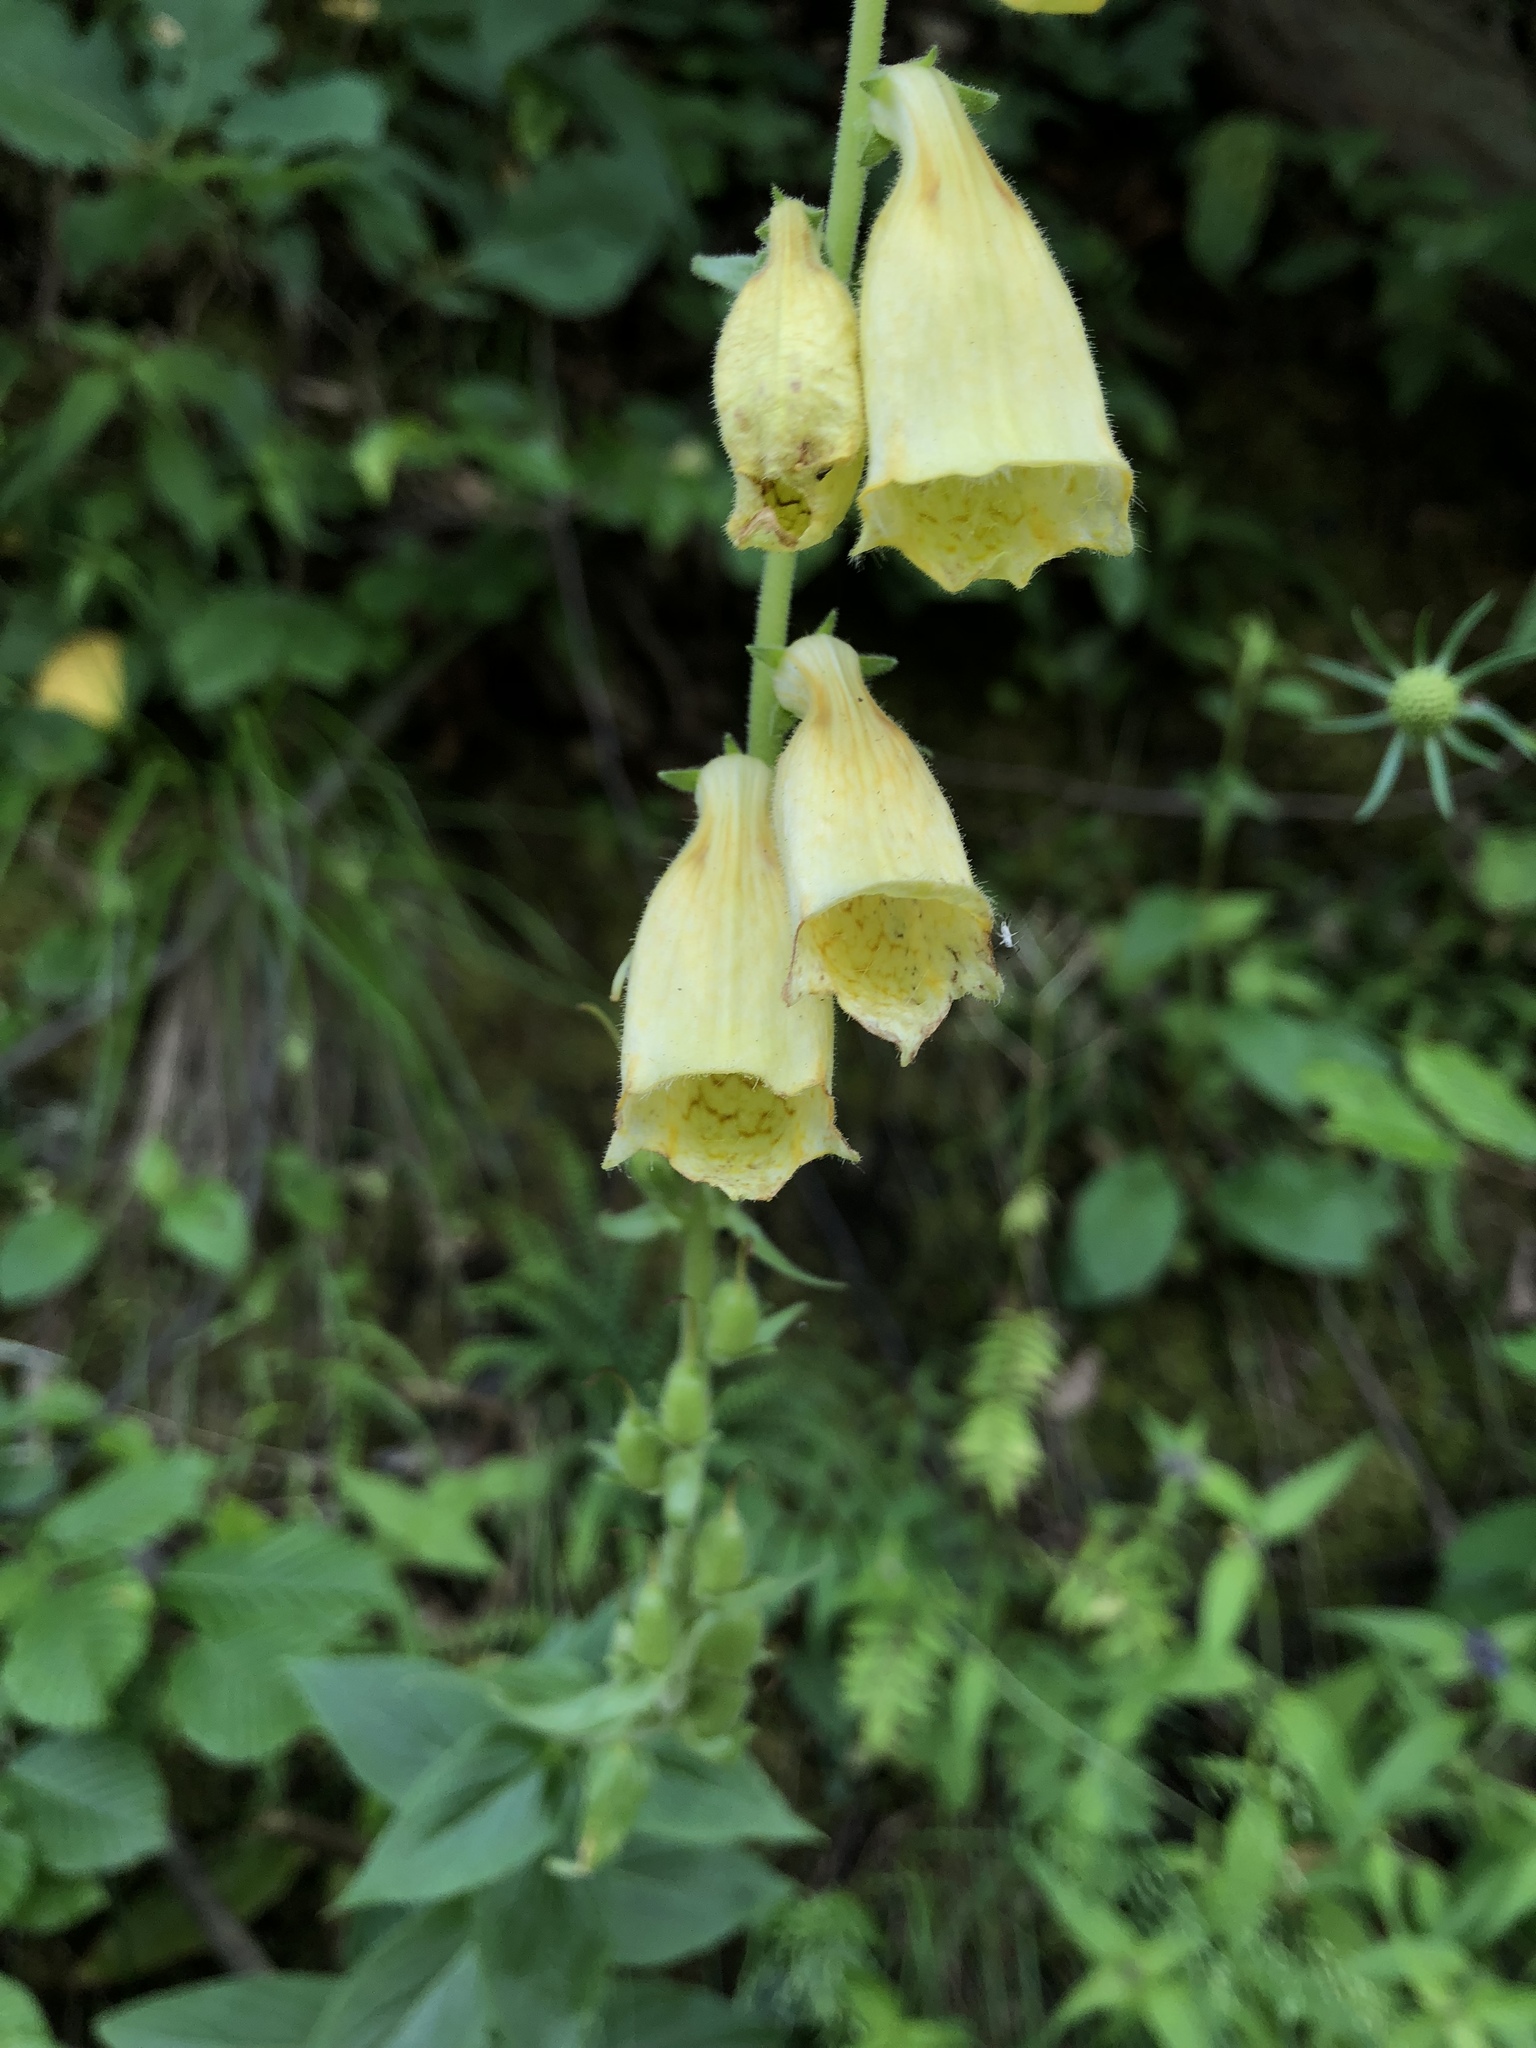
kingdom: Plantae
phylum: Tracheophyta
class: Magnoliopsida
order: Lamiales
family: Plantaginaceae
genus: Digitalis
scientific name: Digitalis grandiflora
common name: Yellow foxglove
